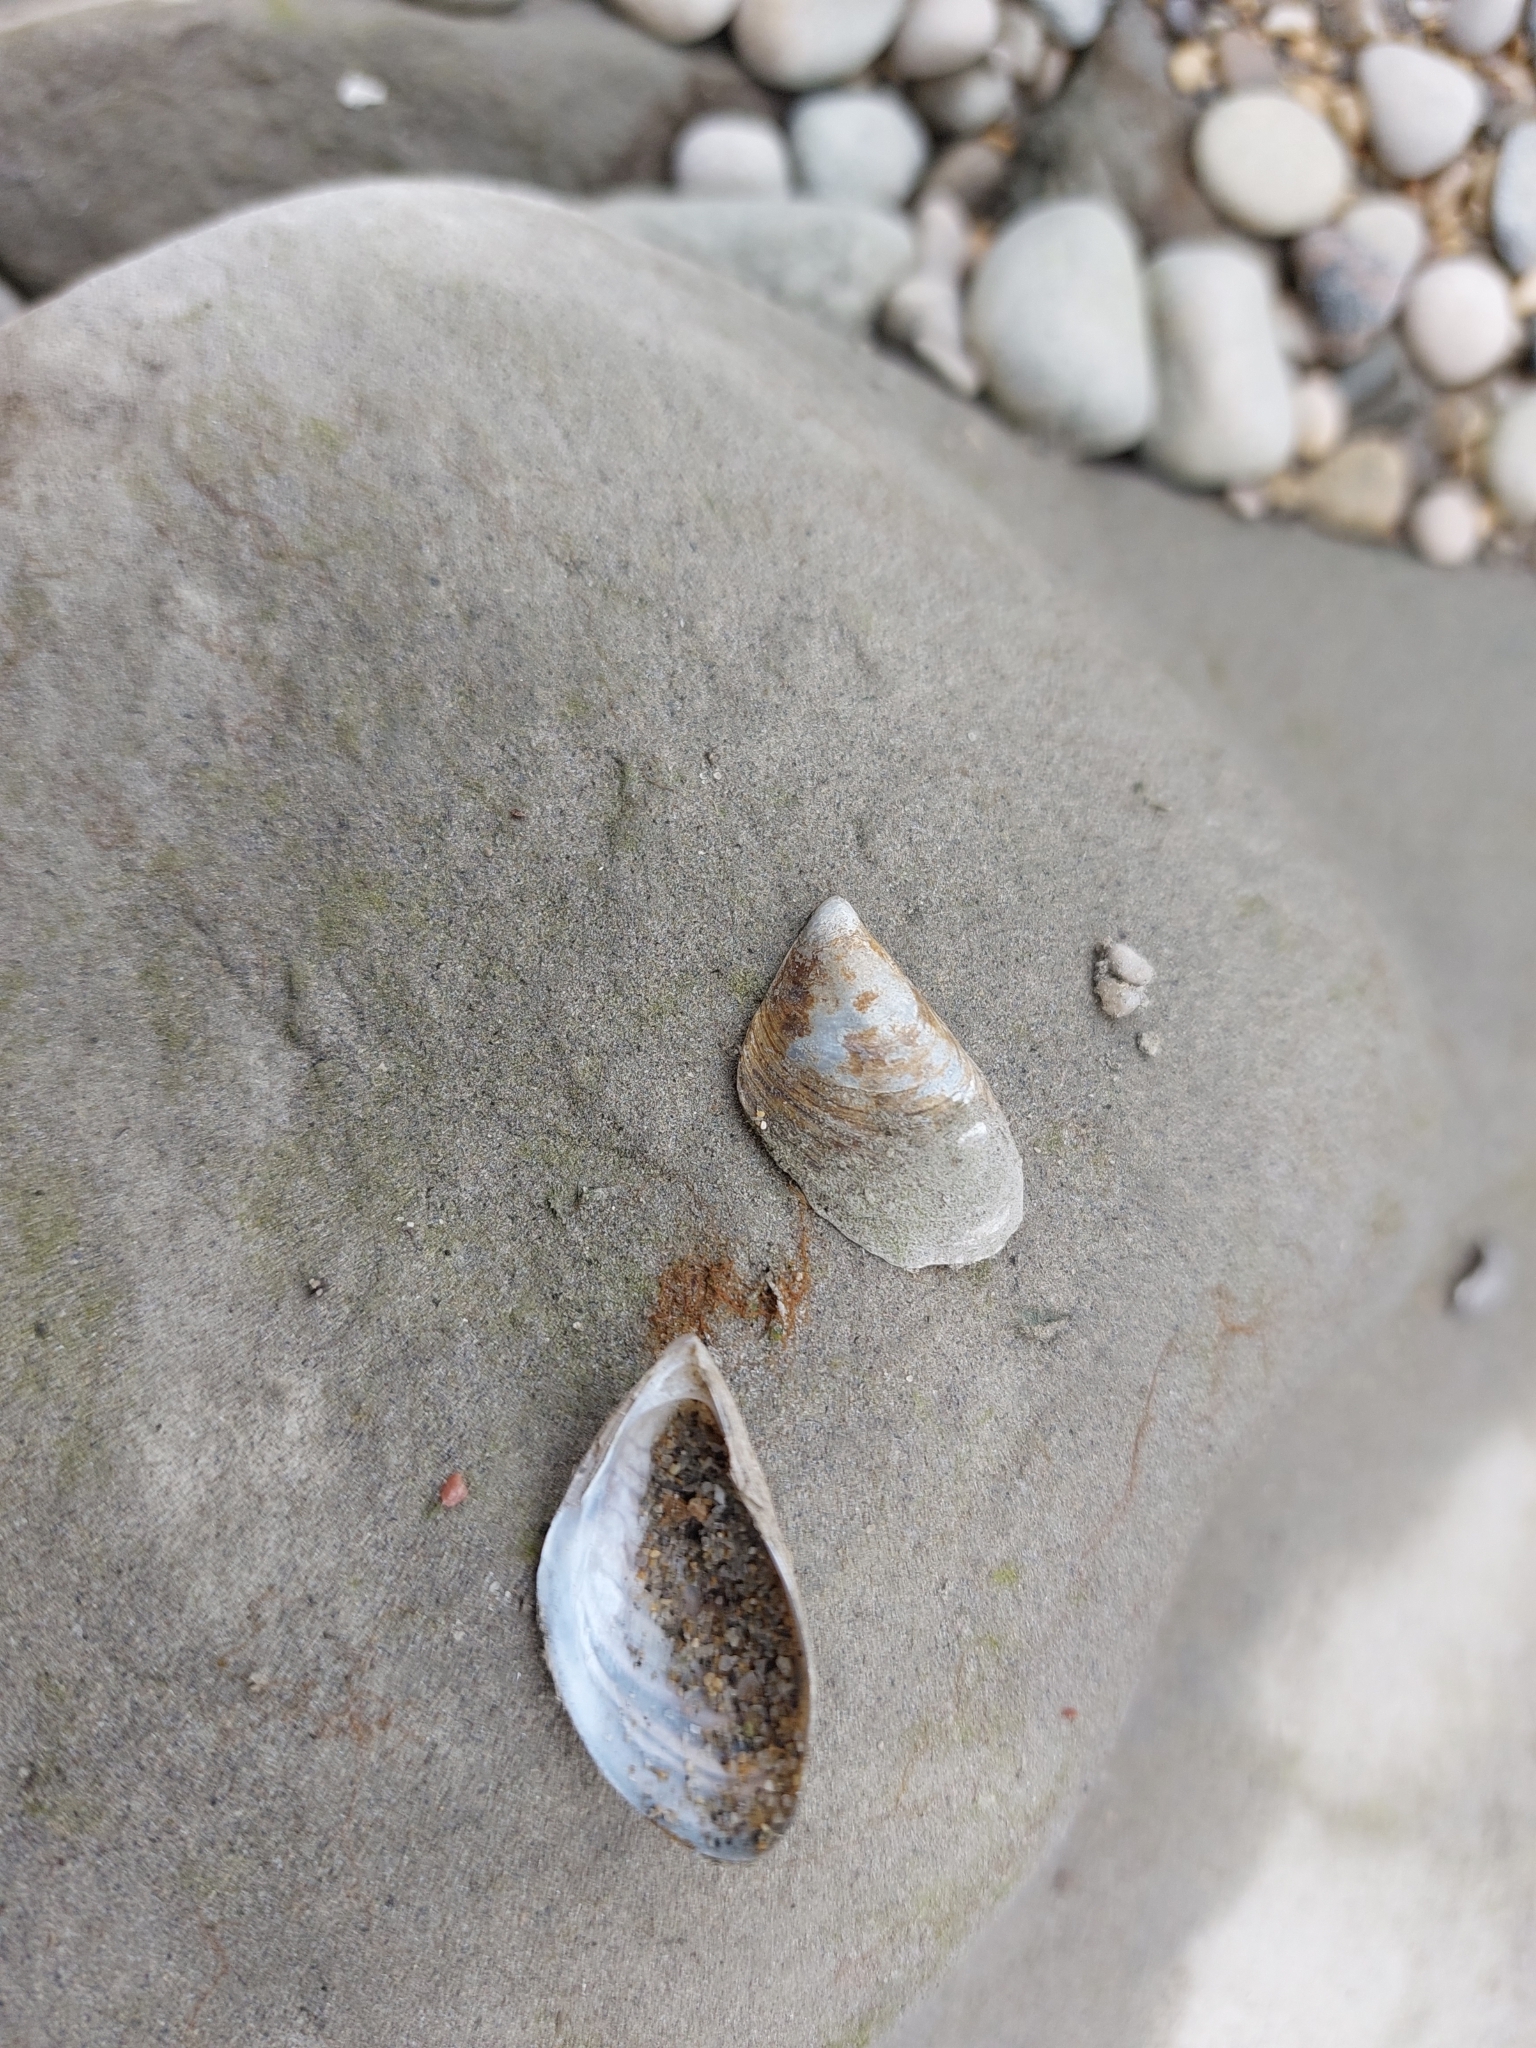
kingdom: Animalia
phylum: Mollusca
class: Bivalvia
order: Myida
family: Dreissenidae
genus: Dreissena
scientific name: Dreissena bugensis
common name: Quagga mussel
